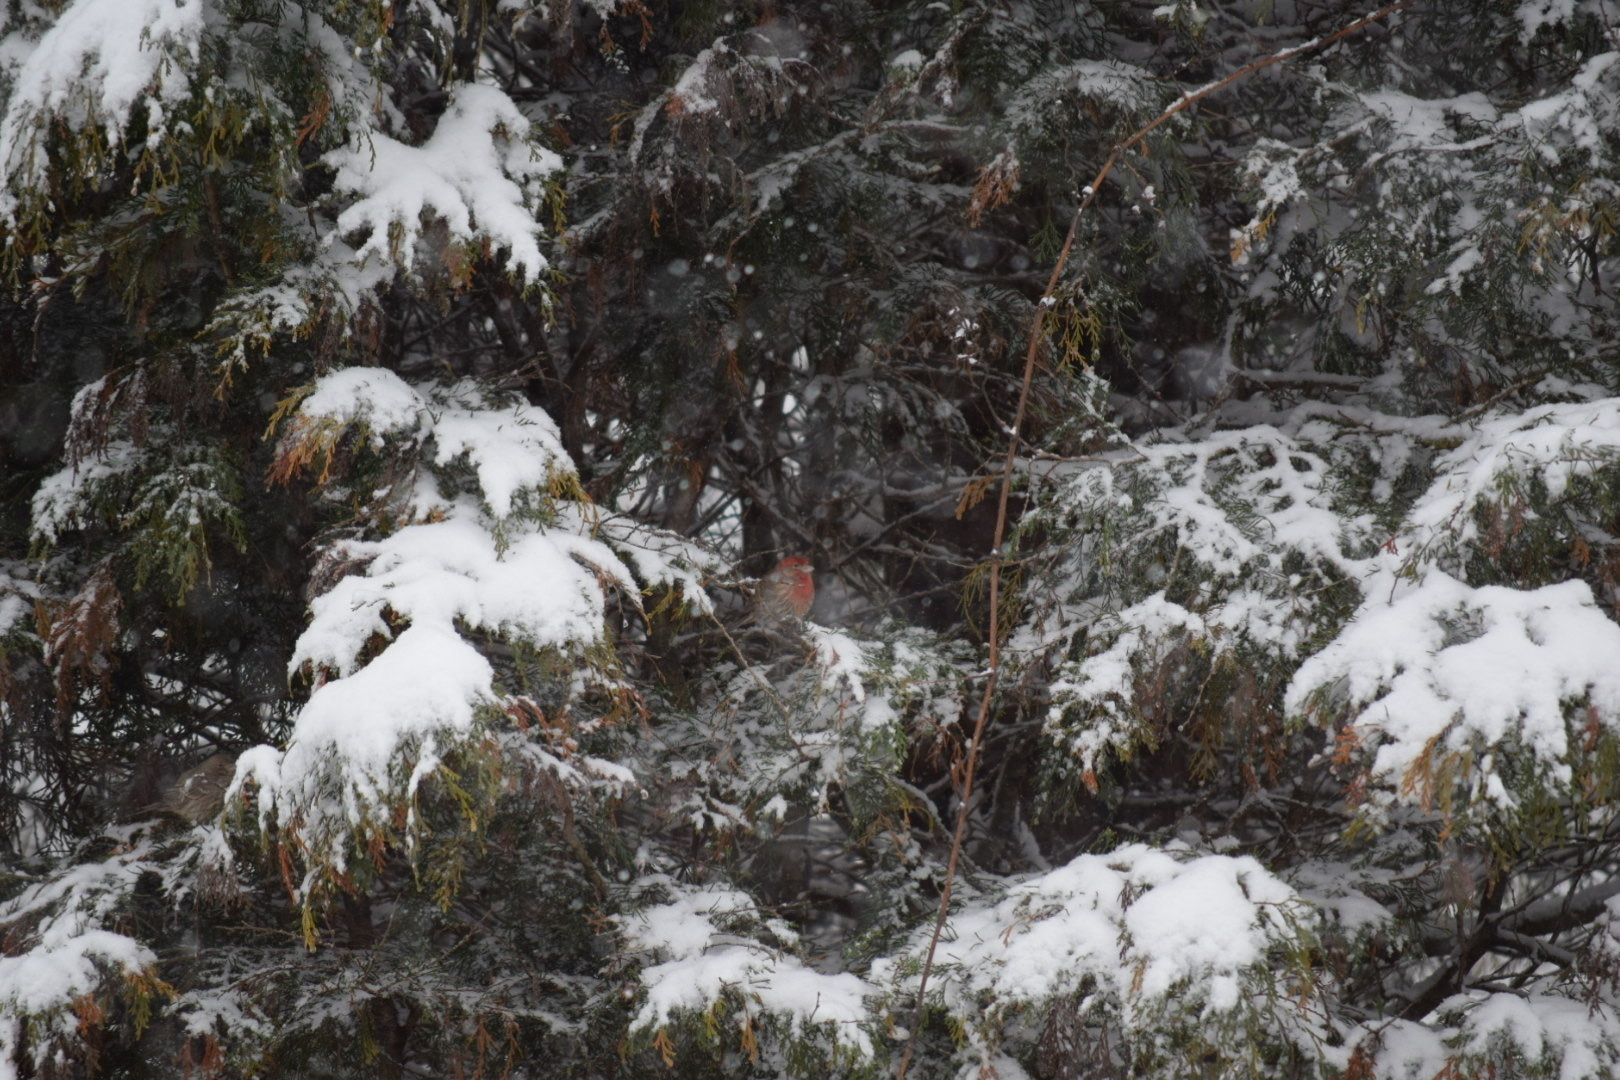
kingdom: Animalia
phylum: Chordata
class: Aves
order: Passeriformes
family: Fringillidae
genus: Haemorhous
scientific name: Haemorhous mexicanus
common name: House finch
